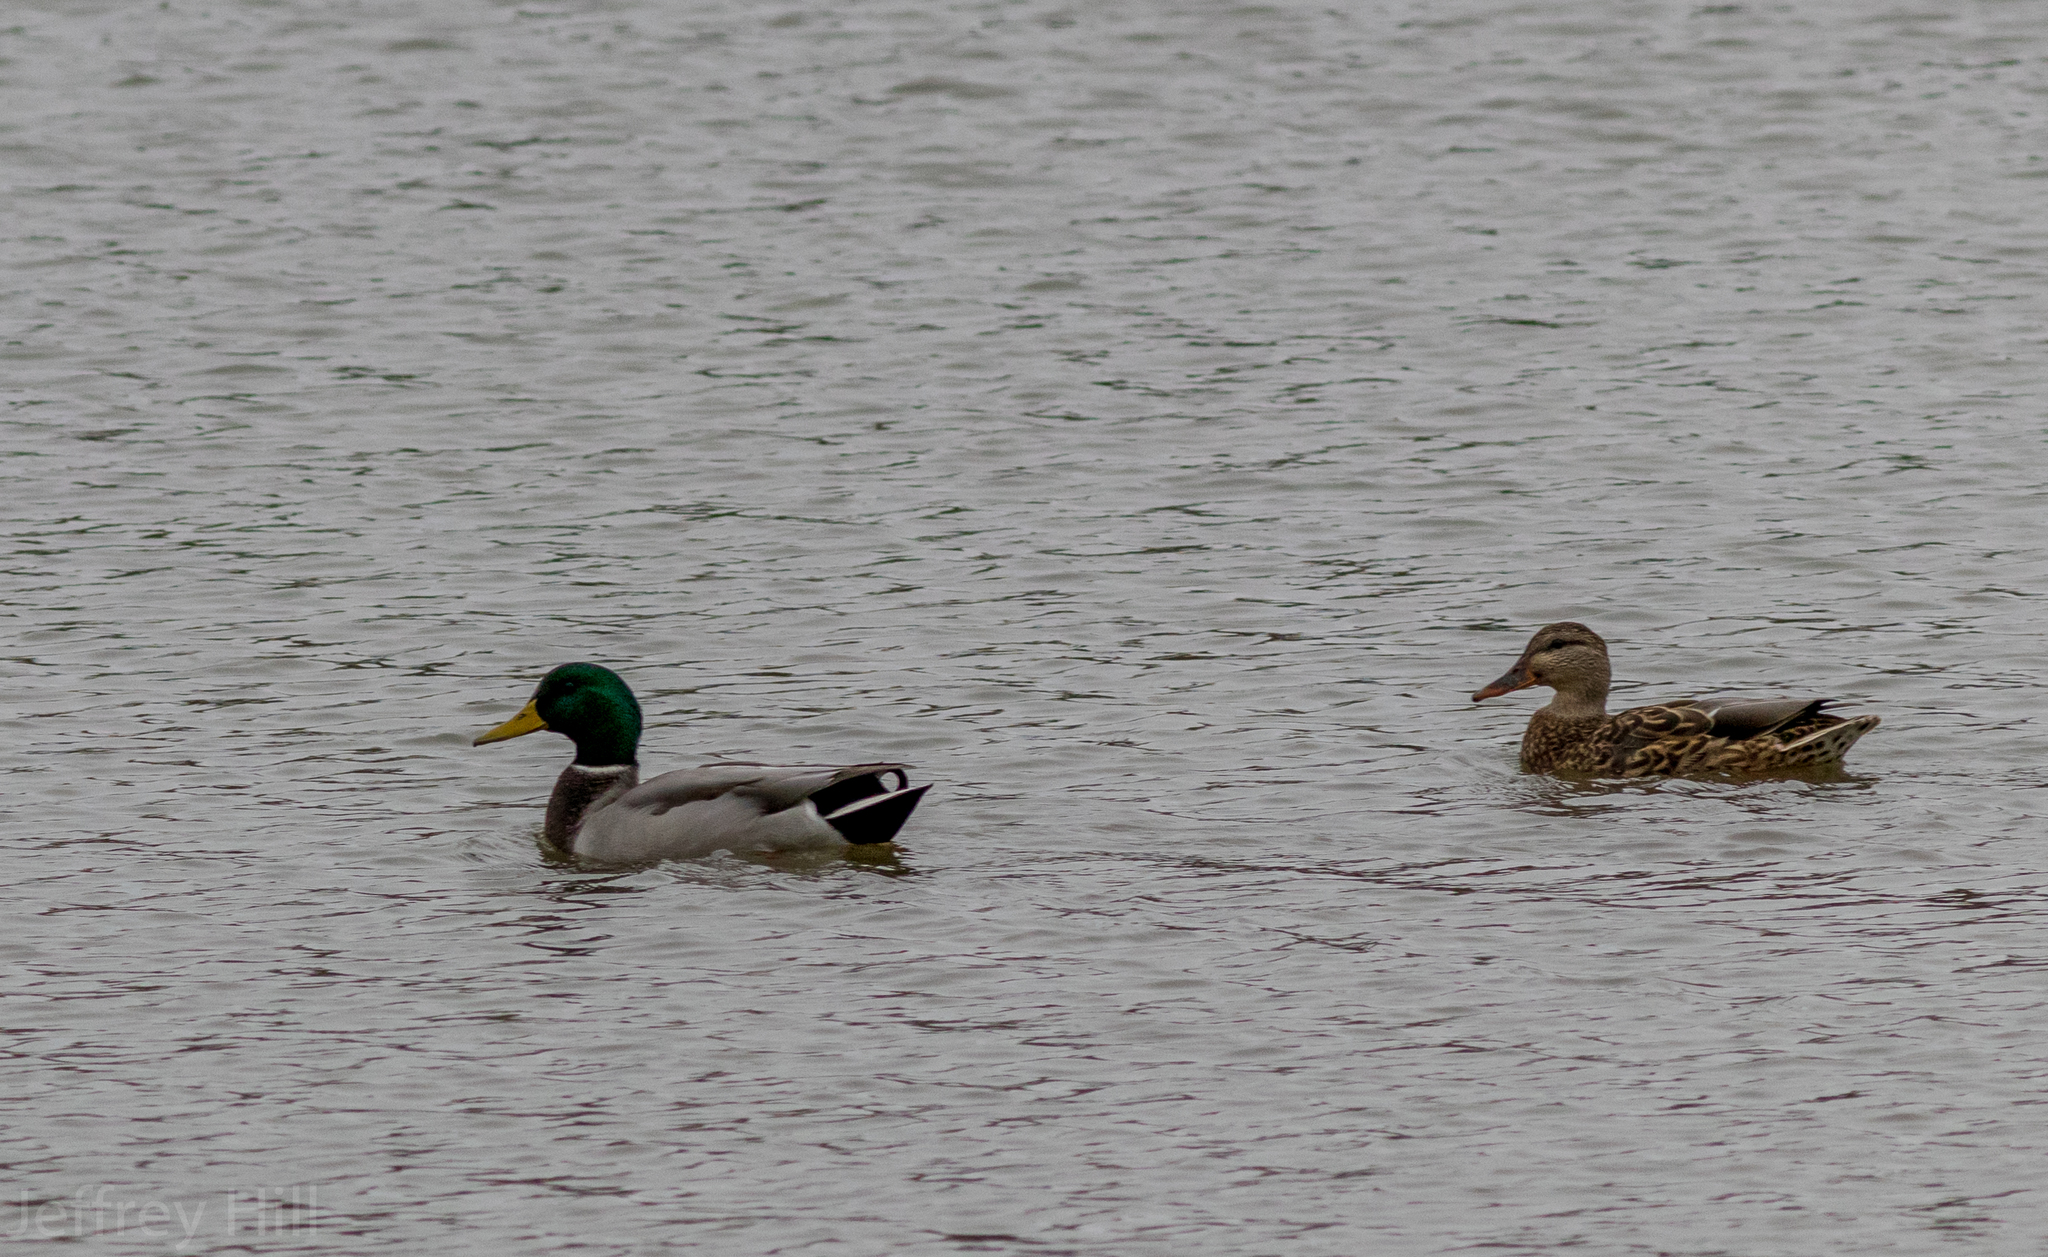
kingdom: Animalia
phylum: Chordata
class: Aves
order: Anseriformes
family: Anatidae
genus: Anas
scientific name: Anas platyrhynchos
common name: Mallard
